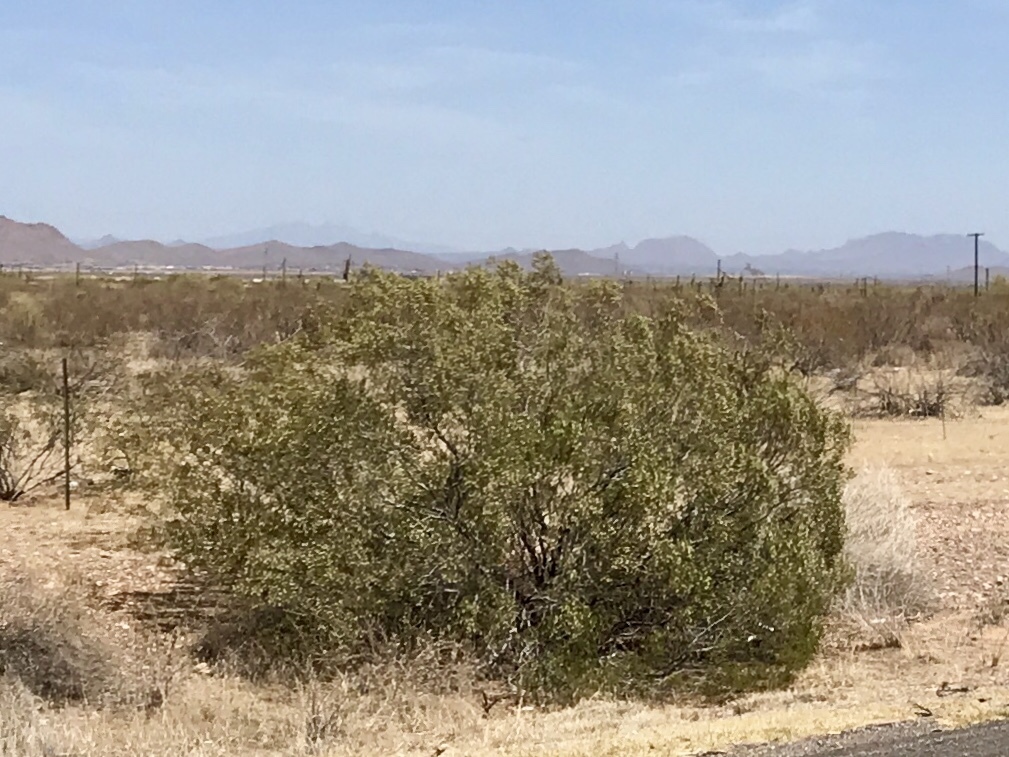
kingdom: Plantae
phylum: Tracheophyta
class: Magnoliopsida
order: Zygophyllales
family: Zygophyllaceae
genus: Larrea
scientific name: Larrea tridentata
